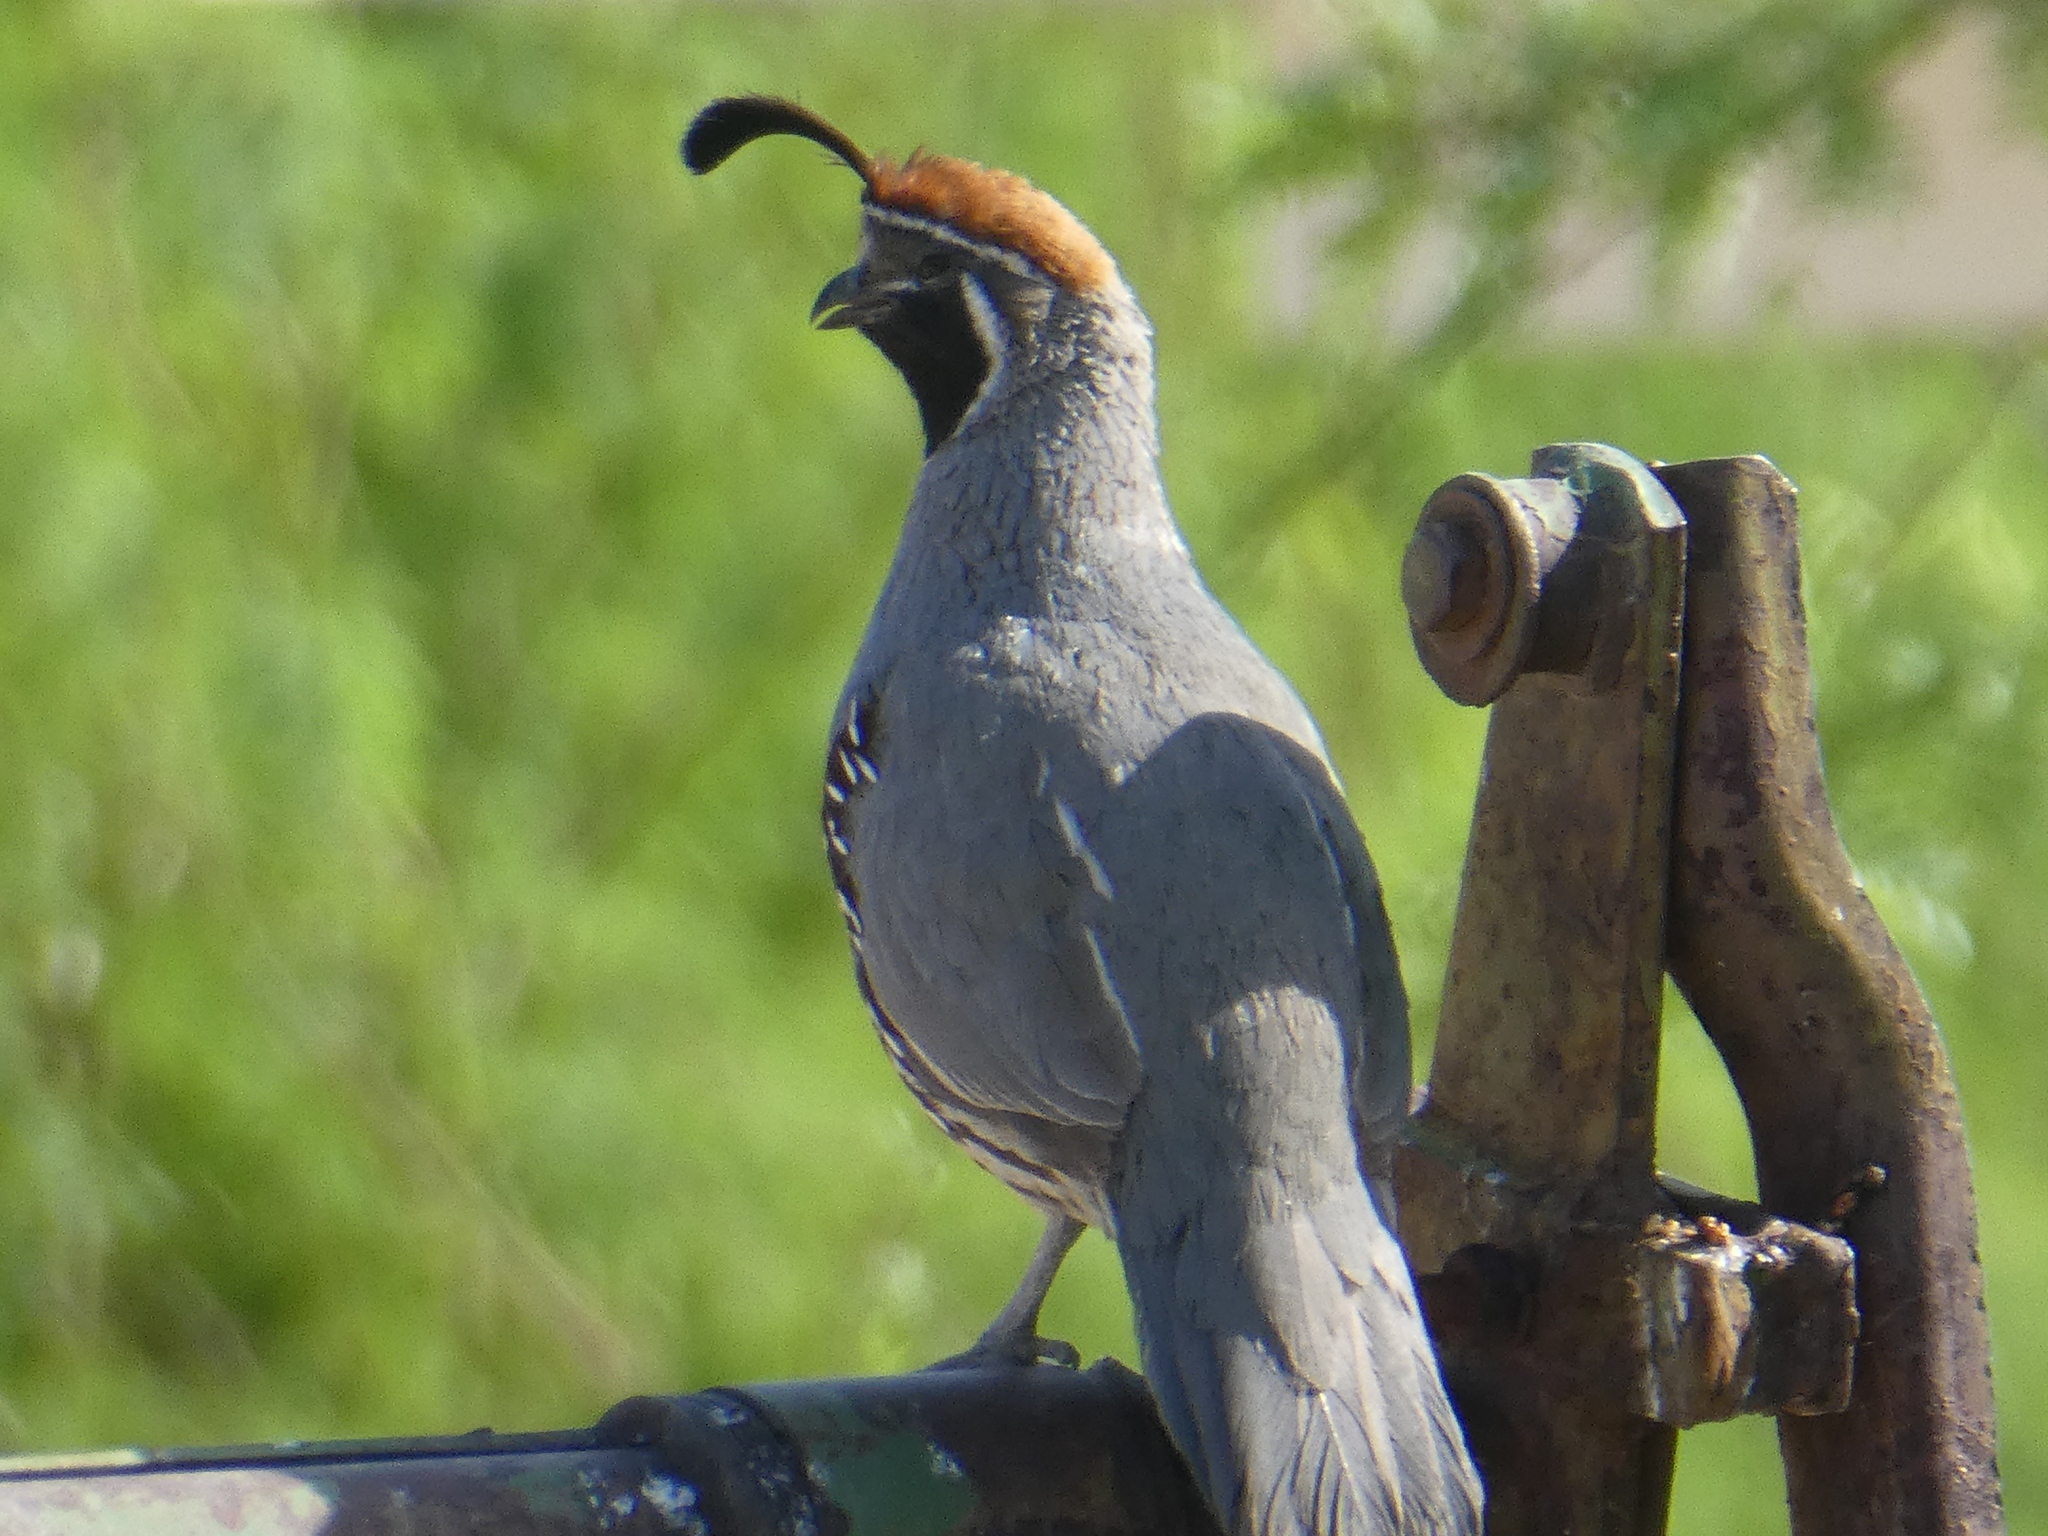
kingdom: Animalia
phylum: Chordata
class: Aves
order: Galliformes
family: Odontophoridae
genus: Callipepla
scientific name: Callipepla gambelii
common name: Gambel's quail
